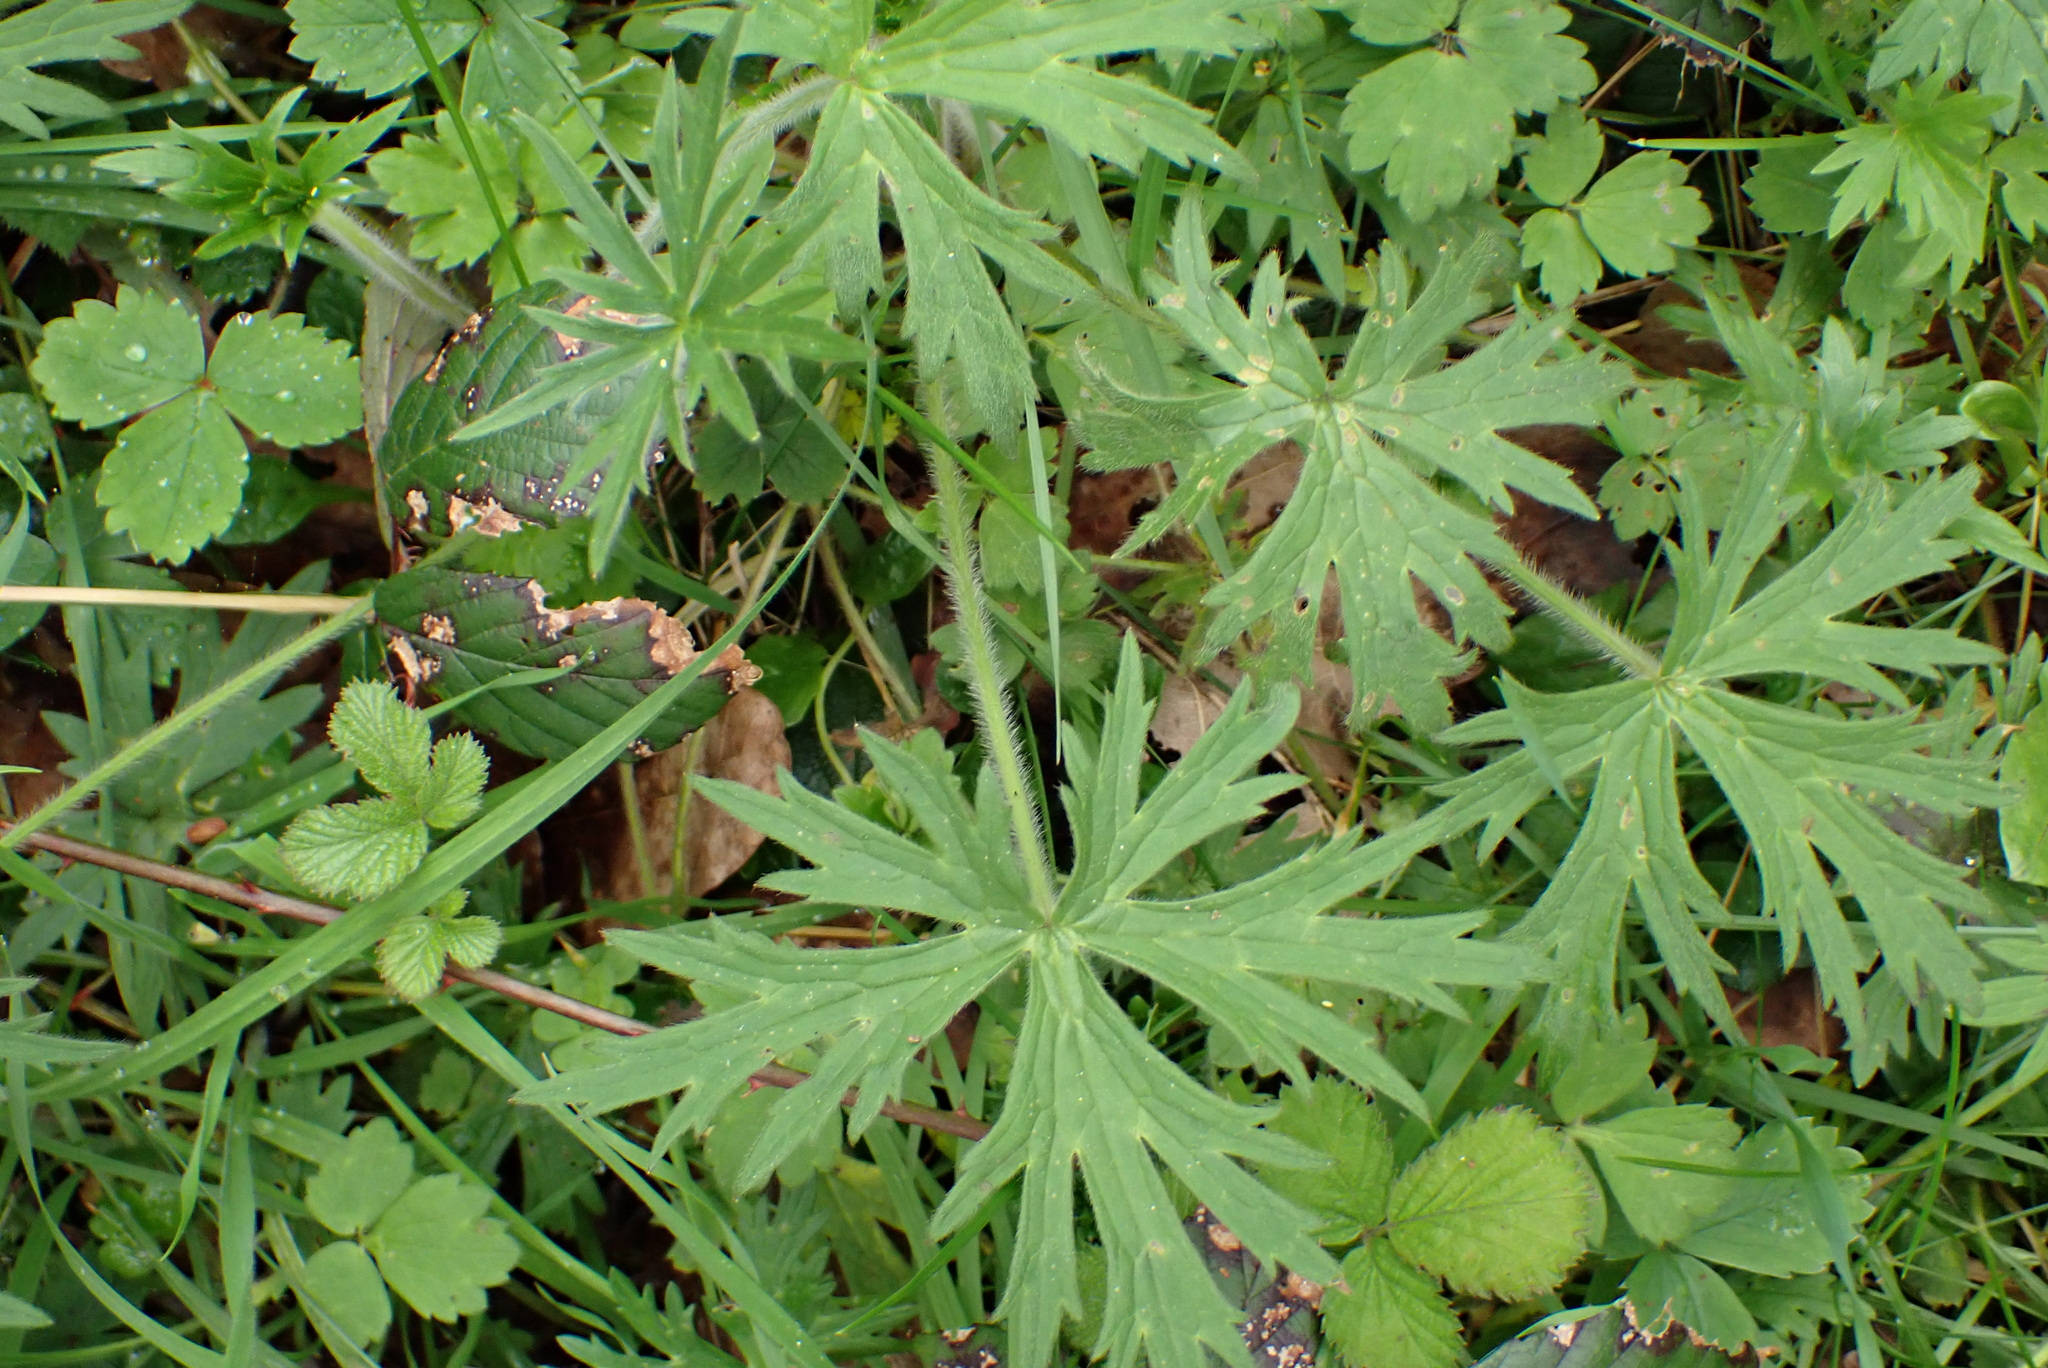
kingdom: Plantae
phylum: Tracheophyta
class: Magnoliopsida
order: Ranunculales
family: Ranunculaceae
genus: Ranunculus
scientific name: Ranunculus acris
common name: Meadow buttercup
